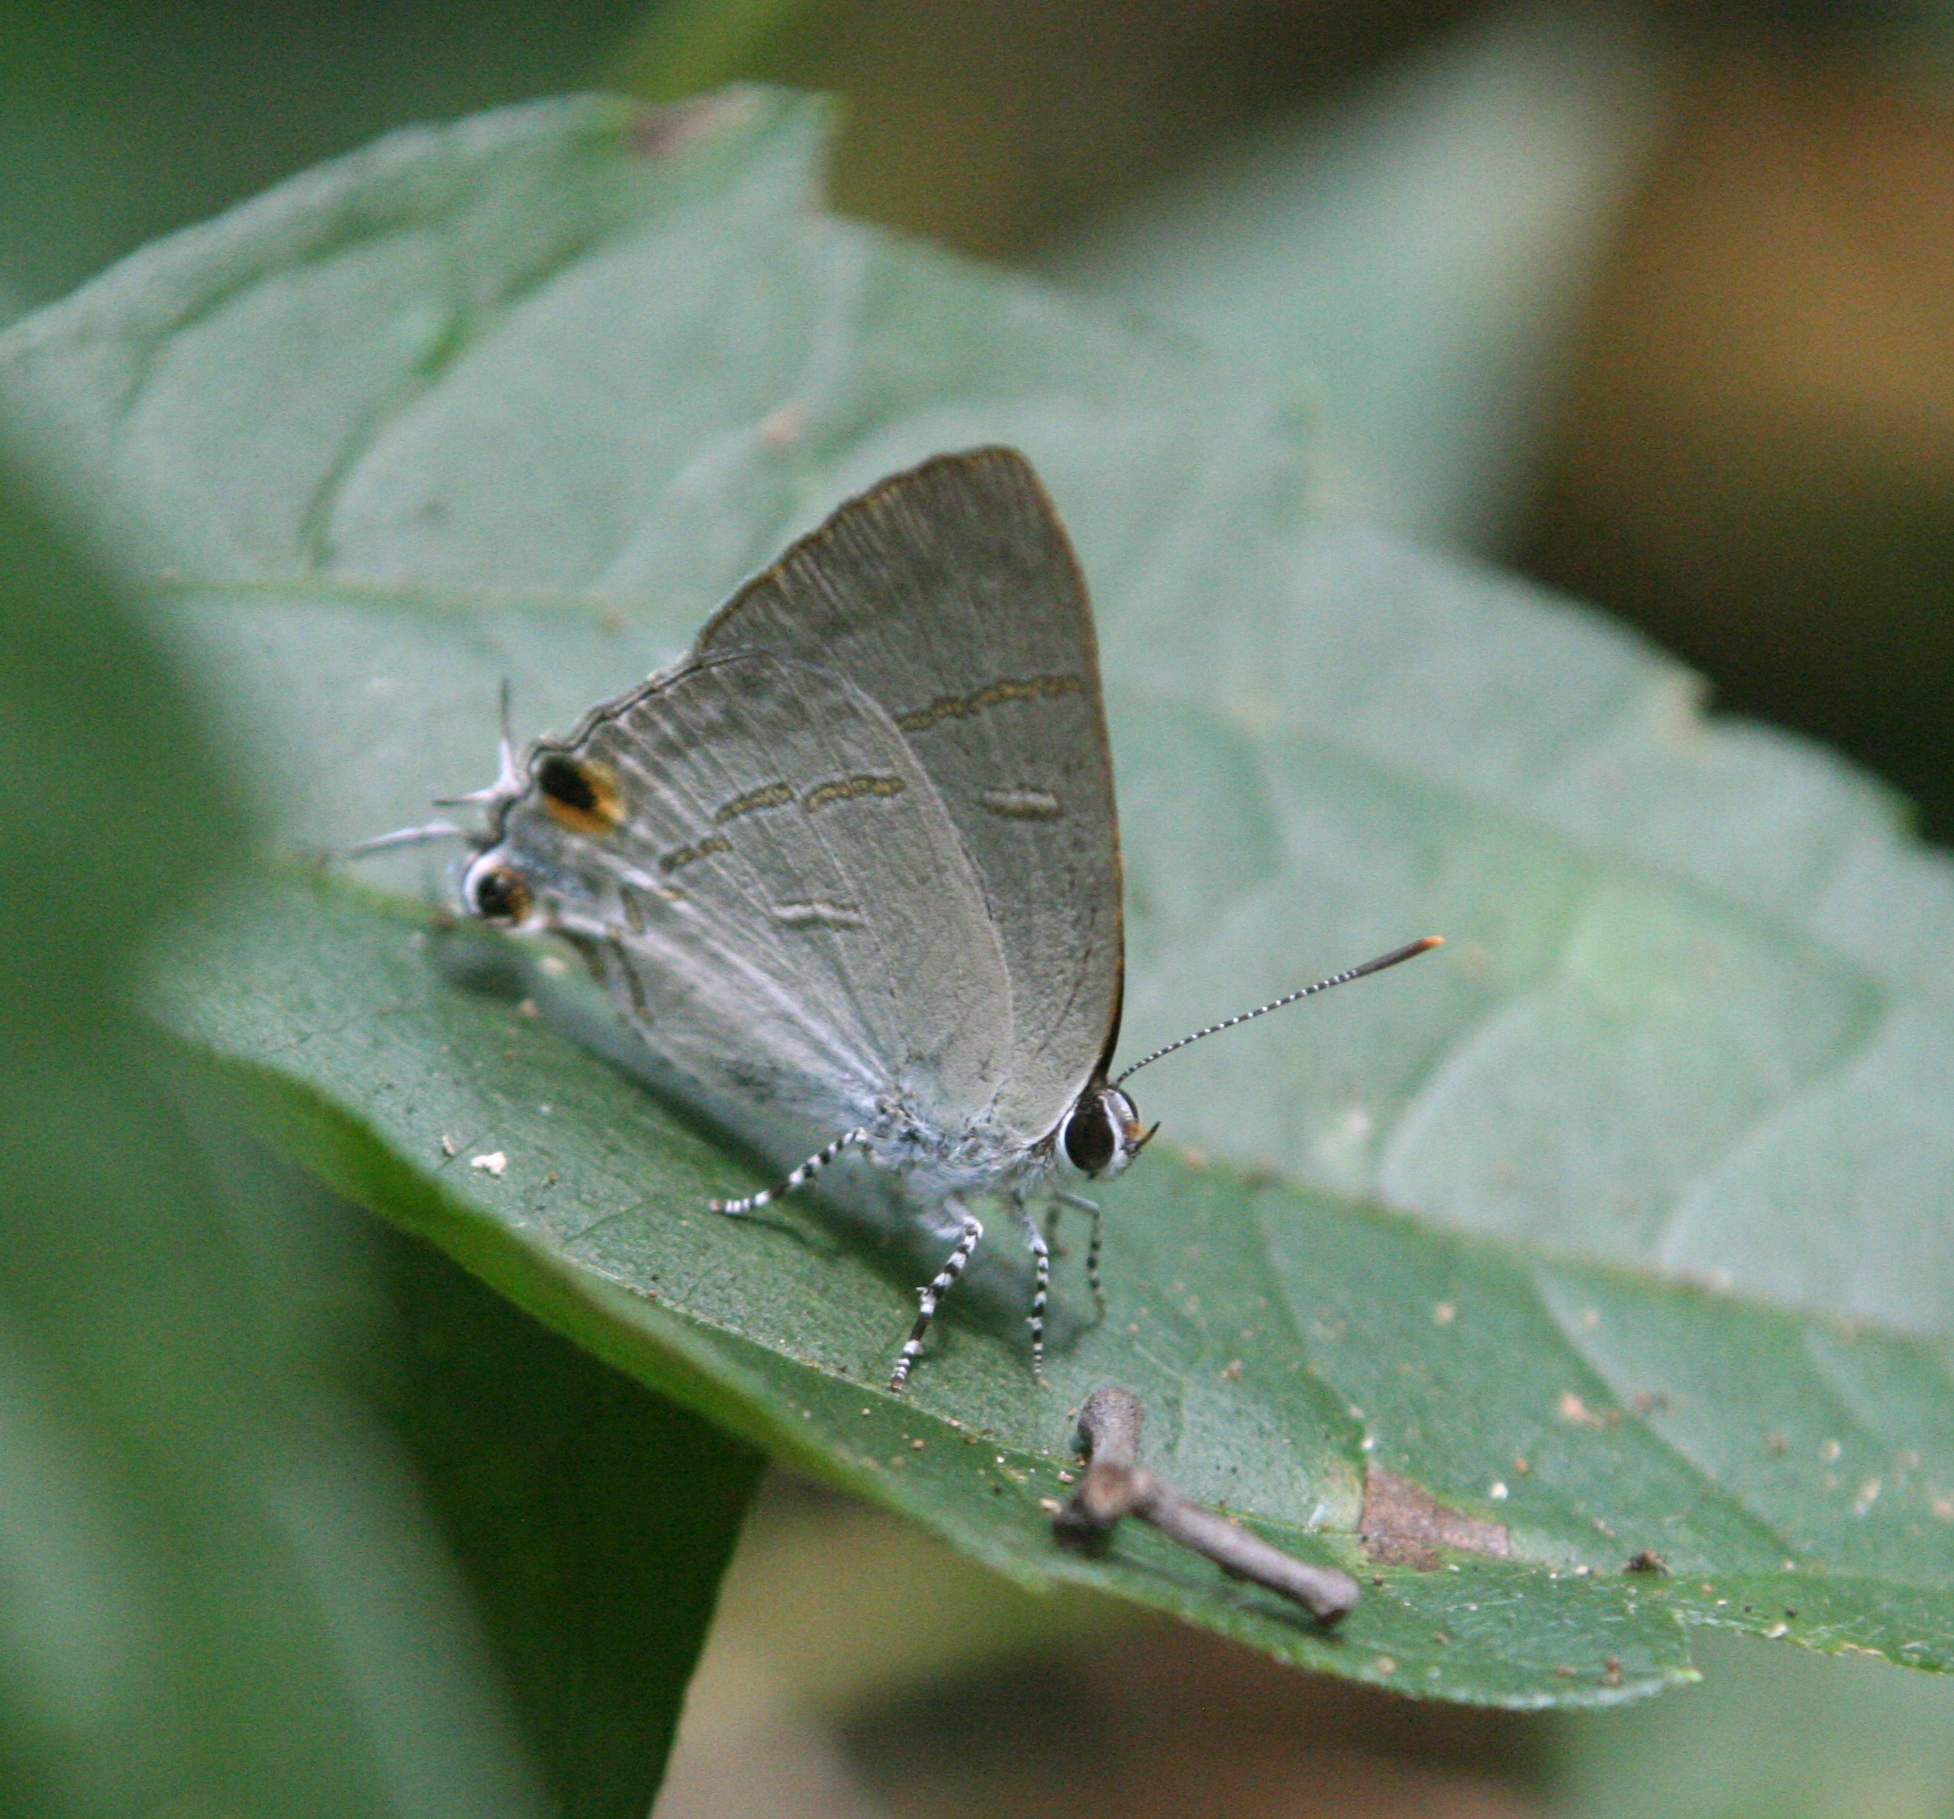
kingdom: Animalia
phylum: Arthropoda
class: Insecta
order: Lepidoptera
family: Lycaenidae
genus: Hypolycaena
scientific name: Hypolycaena erylus
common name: Common tit
